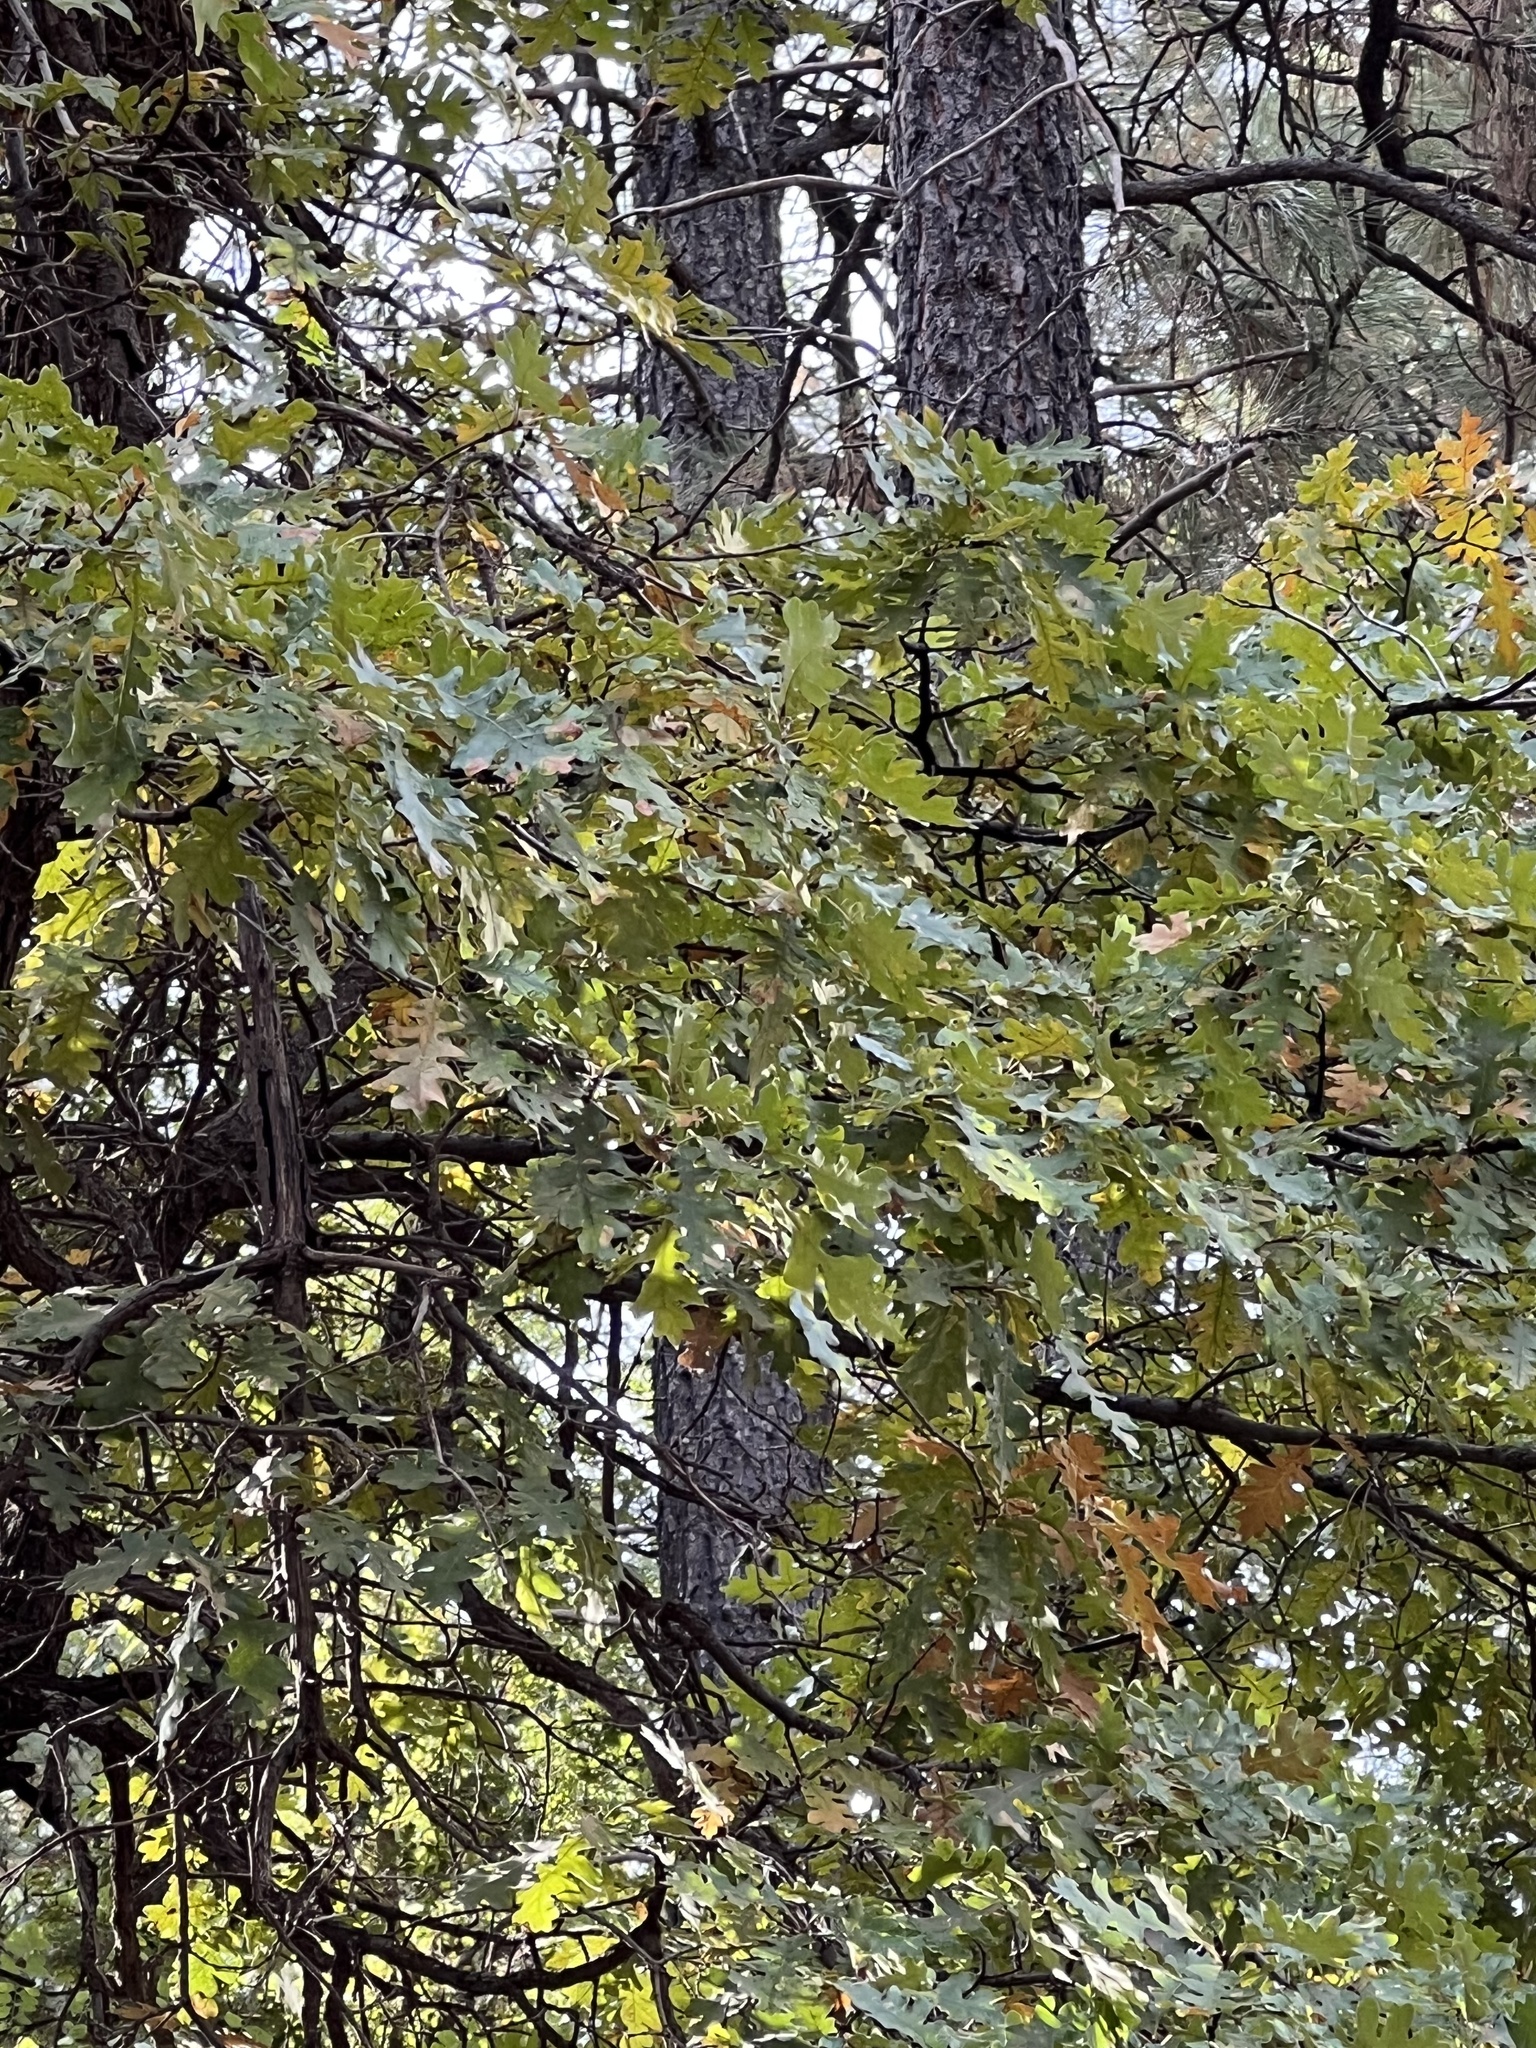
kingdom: Plantae
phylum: Tracheophyta
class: Magnoliopsida
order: Fagales
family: Fagaceae
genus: Quercus
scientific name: Quercus gambelii
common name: Gambel oak
